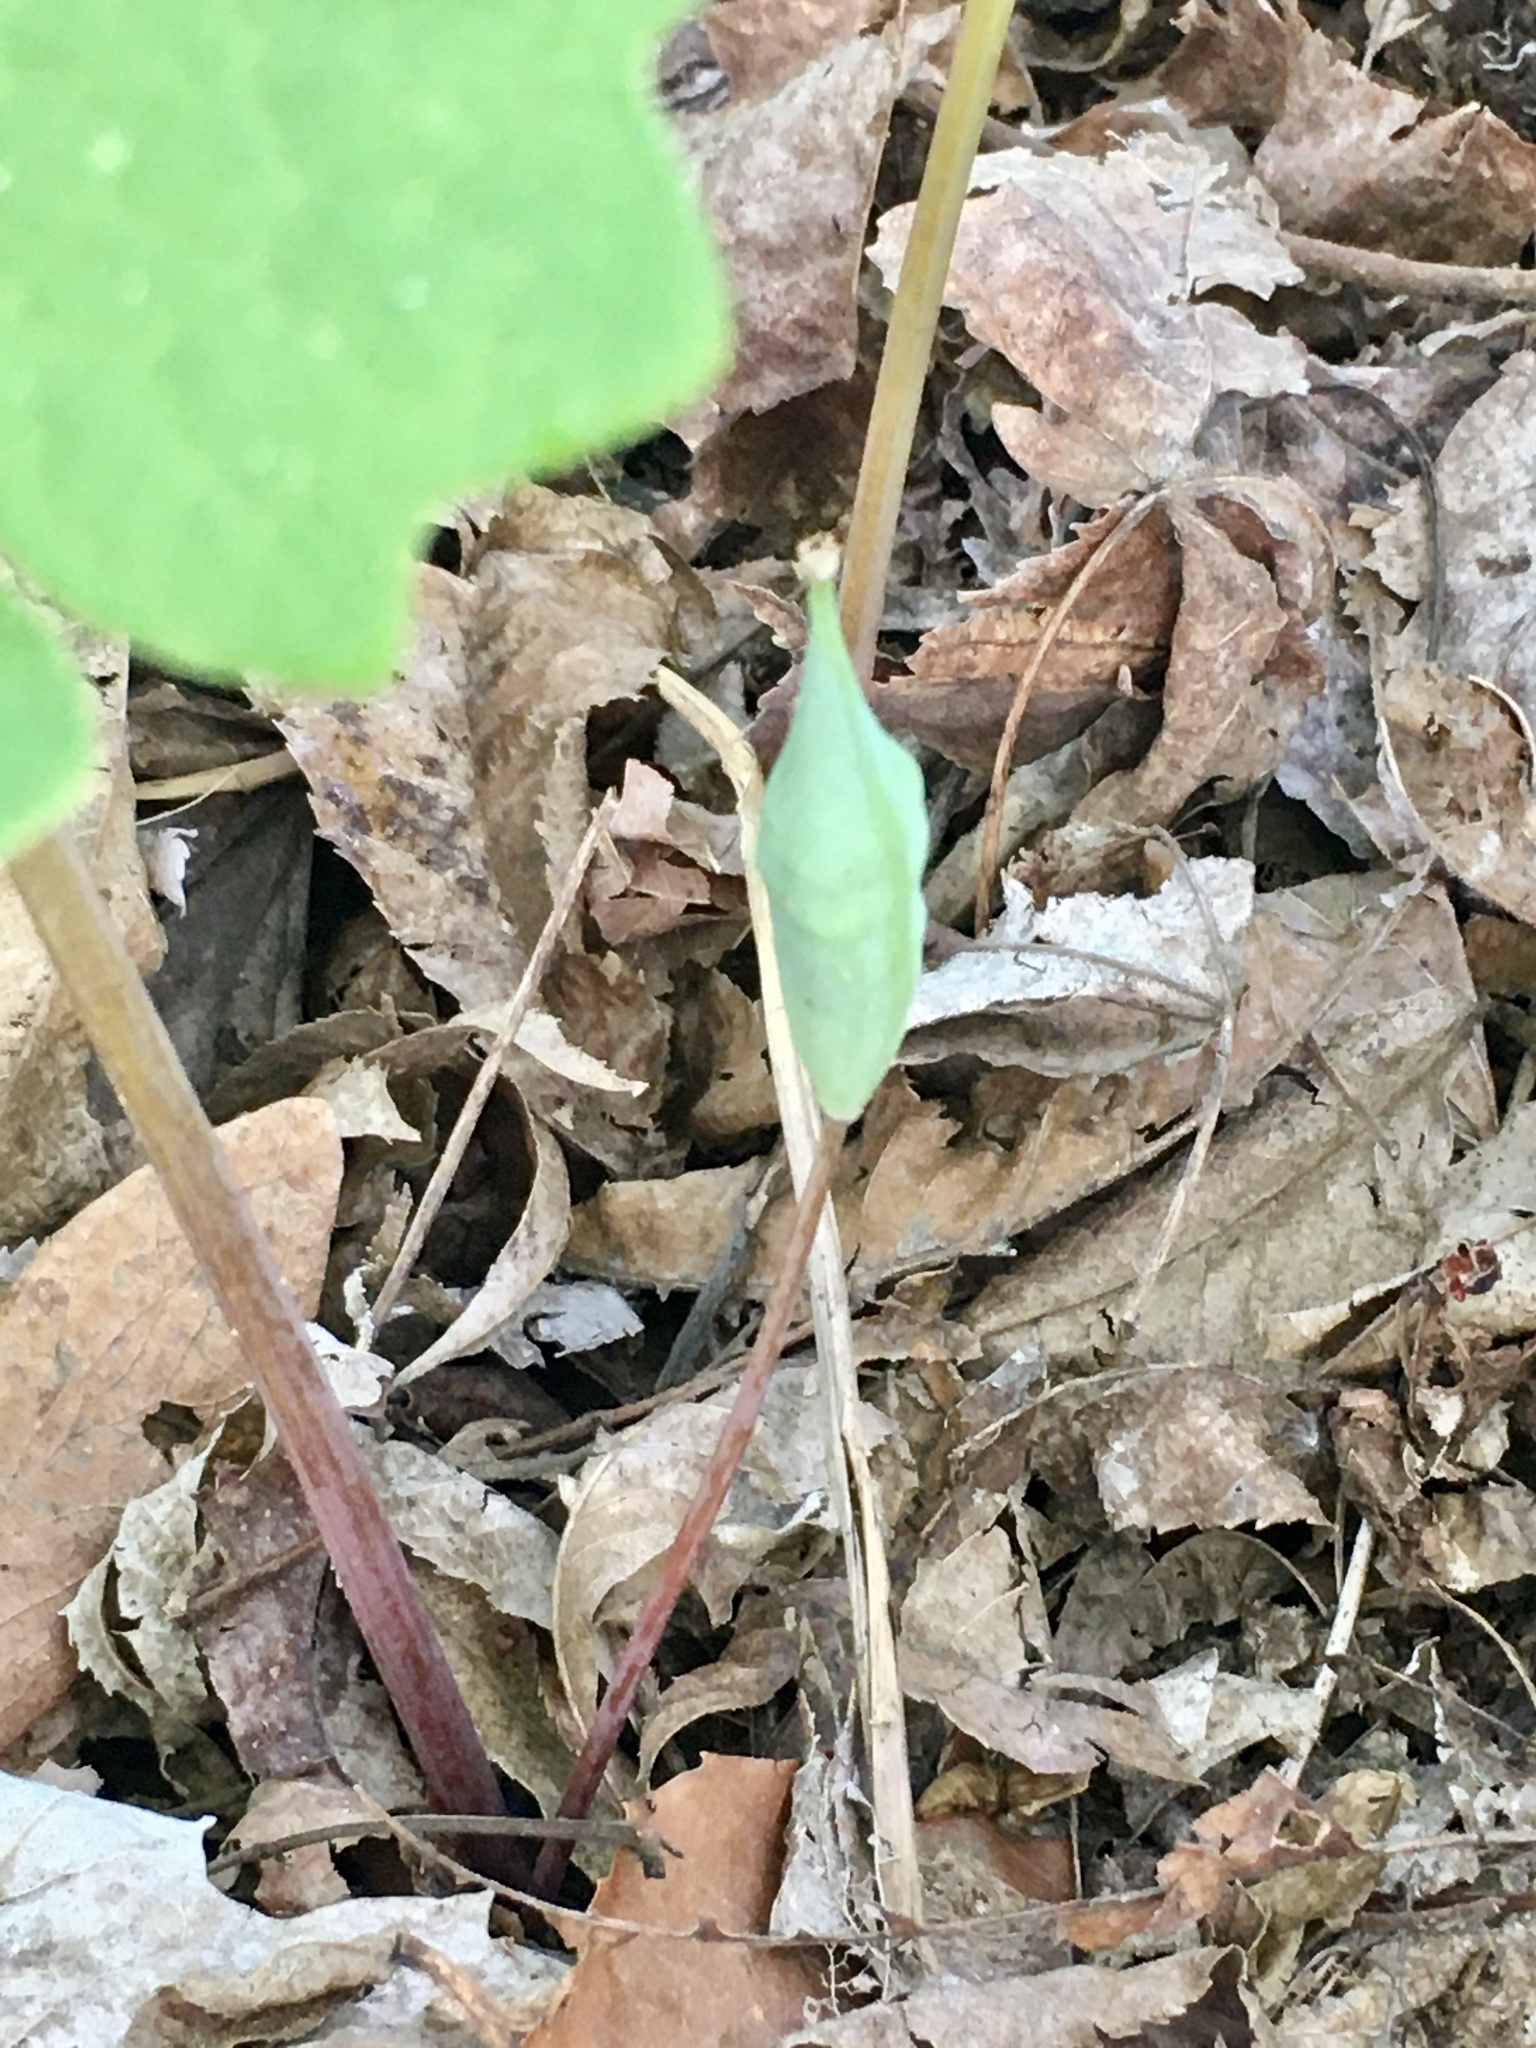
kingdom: Plantae
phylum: Tracheophyta
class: Magnoliopsida
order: Ranunculales
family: Papaveraceae
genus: Sanguinaria
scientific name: Sanguinaria canadensis
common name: Bloodroot
